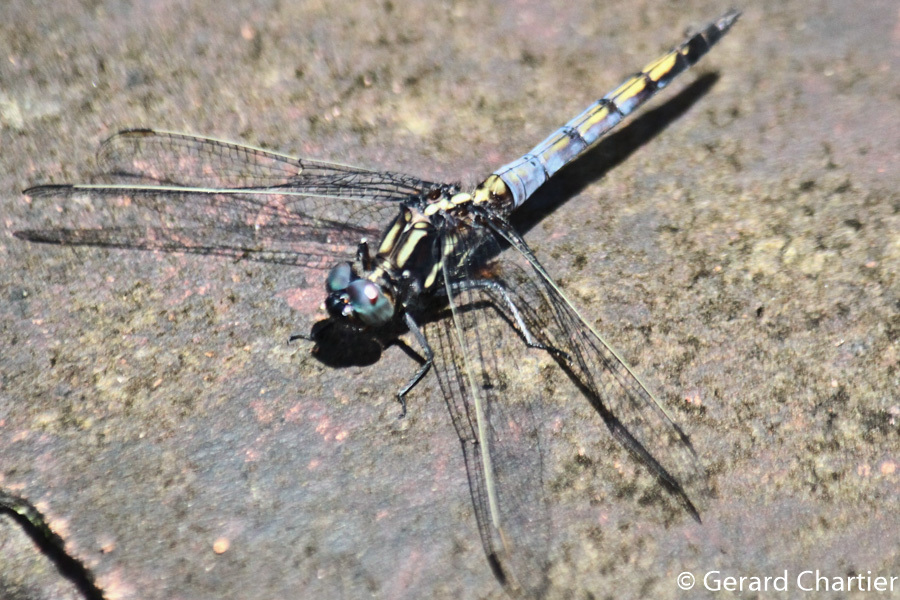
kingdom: Animalia
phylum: Arthropoda
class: Insecta
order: Odonata
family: Libellulidae
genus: Orthetrum
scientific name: Orthetrum glaucum
